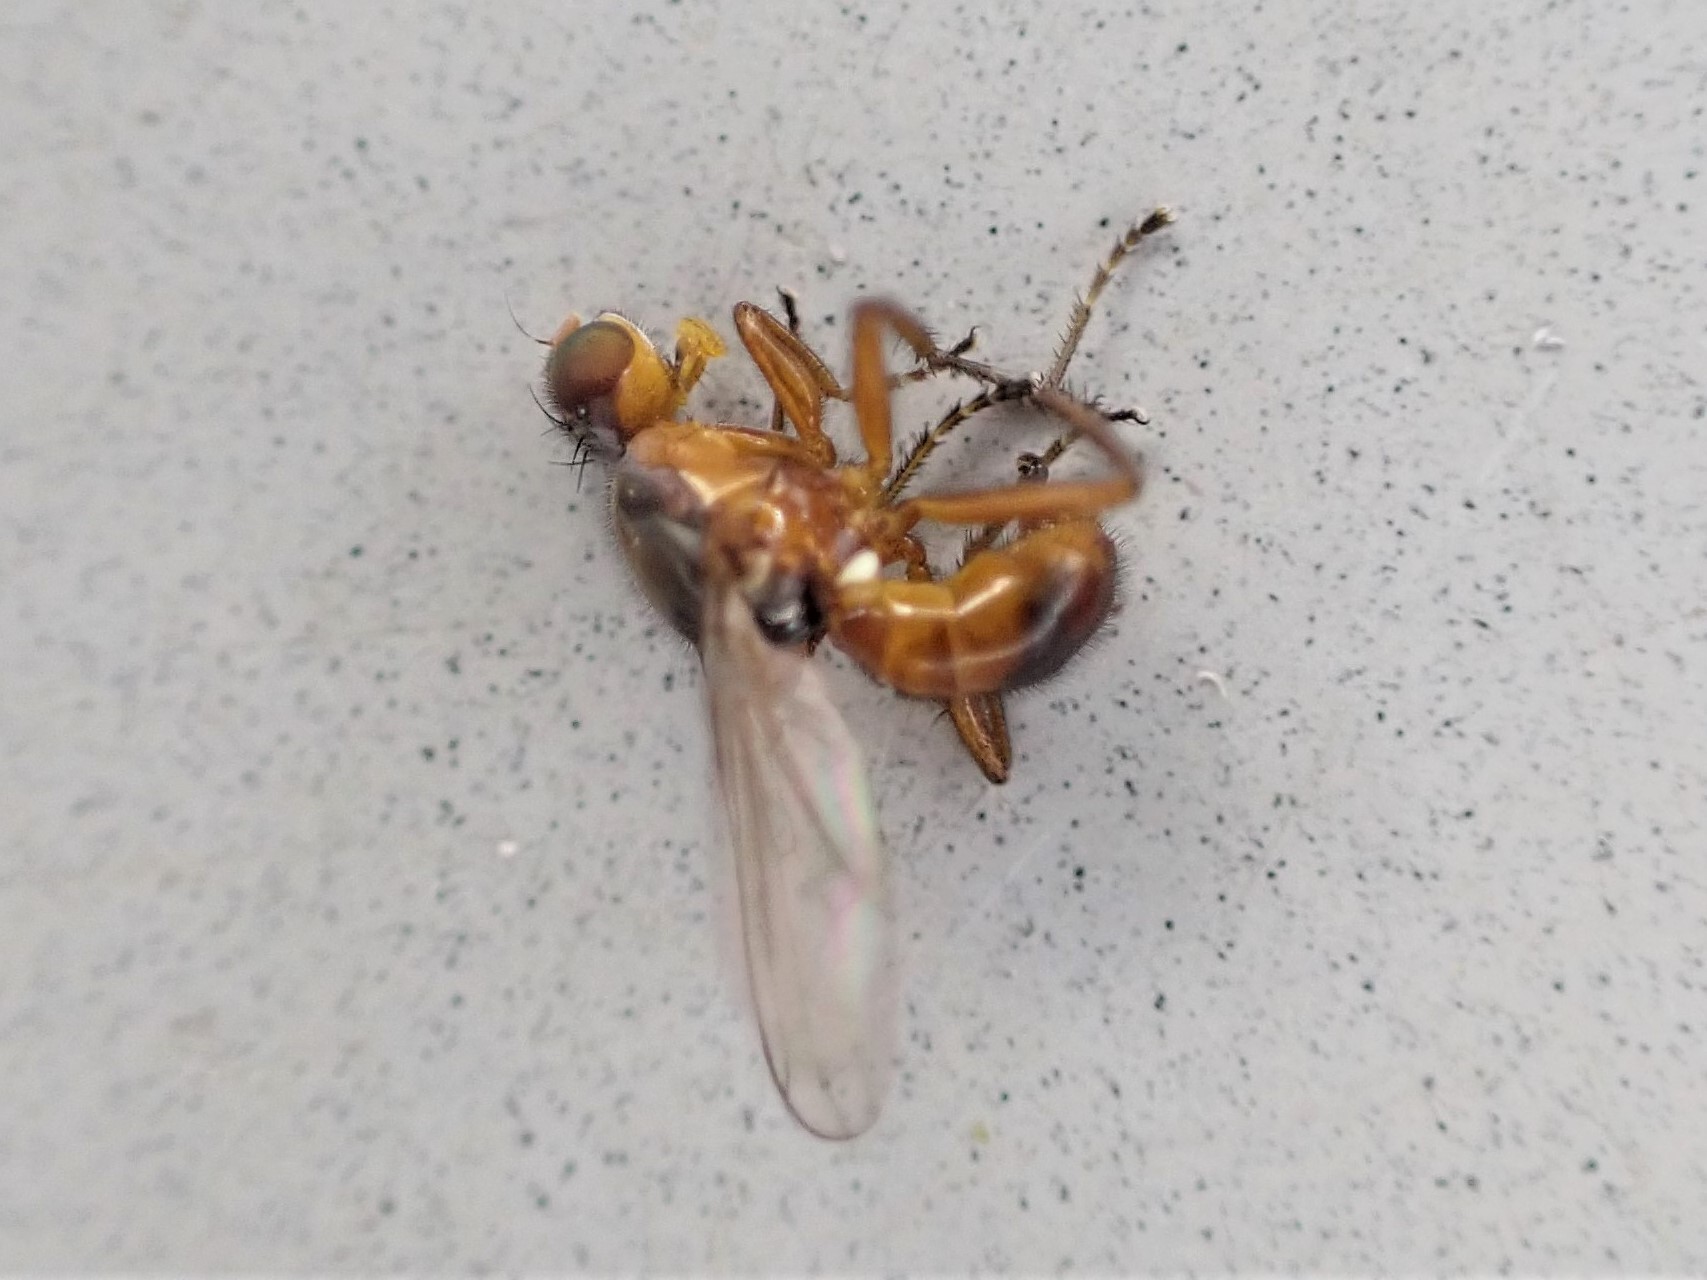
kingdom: Animalia
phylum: Arthropoda
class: Insecta
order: Diptera
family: Sepsidae
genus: Lasionemopoda
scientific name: Lasionemopoda hirsuta
